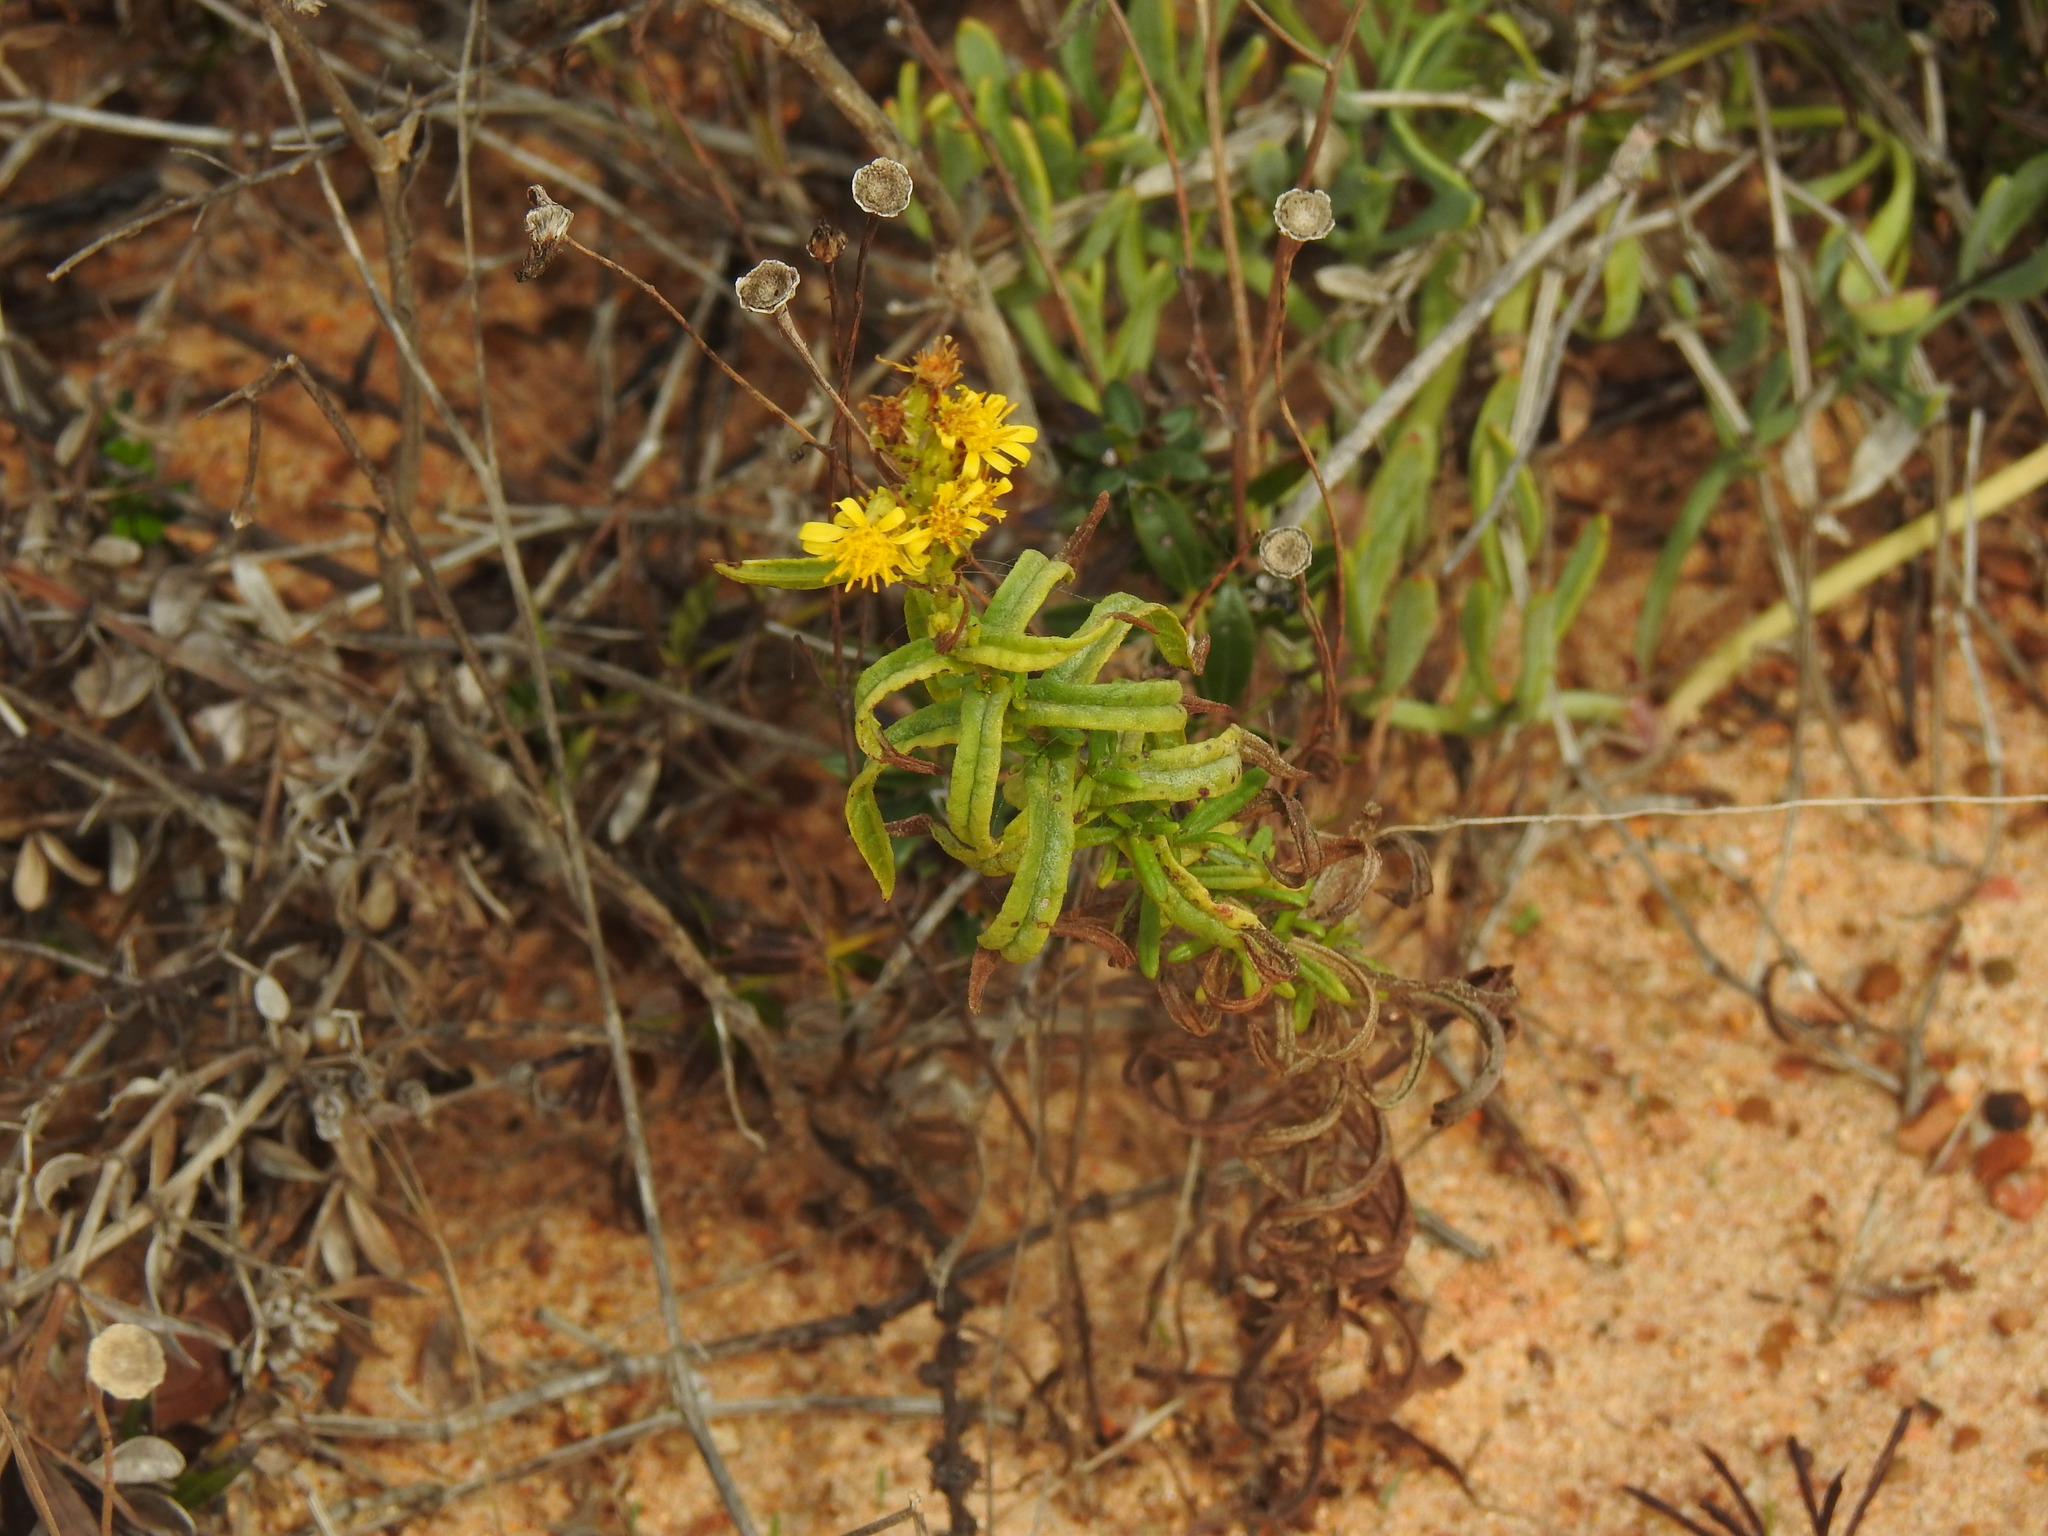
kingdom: Plantae
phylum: Tracheophyta
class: Magnoliopsida
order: Asterales
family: Asteraceae
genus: Dittrichia
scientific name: Dittrichia viscosa
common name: Woody fleabane
